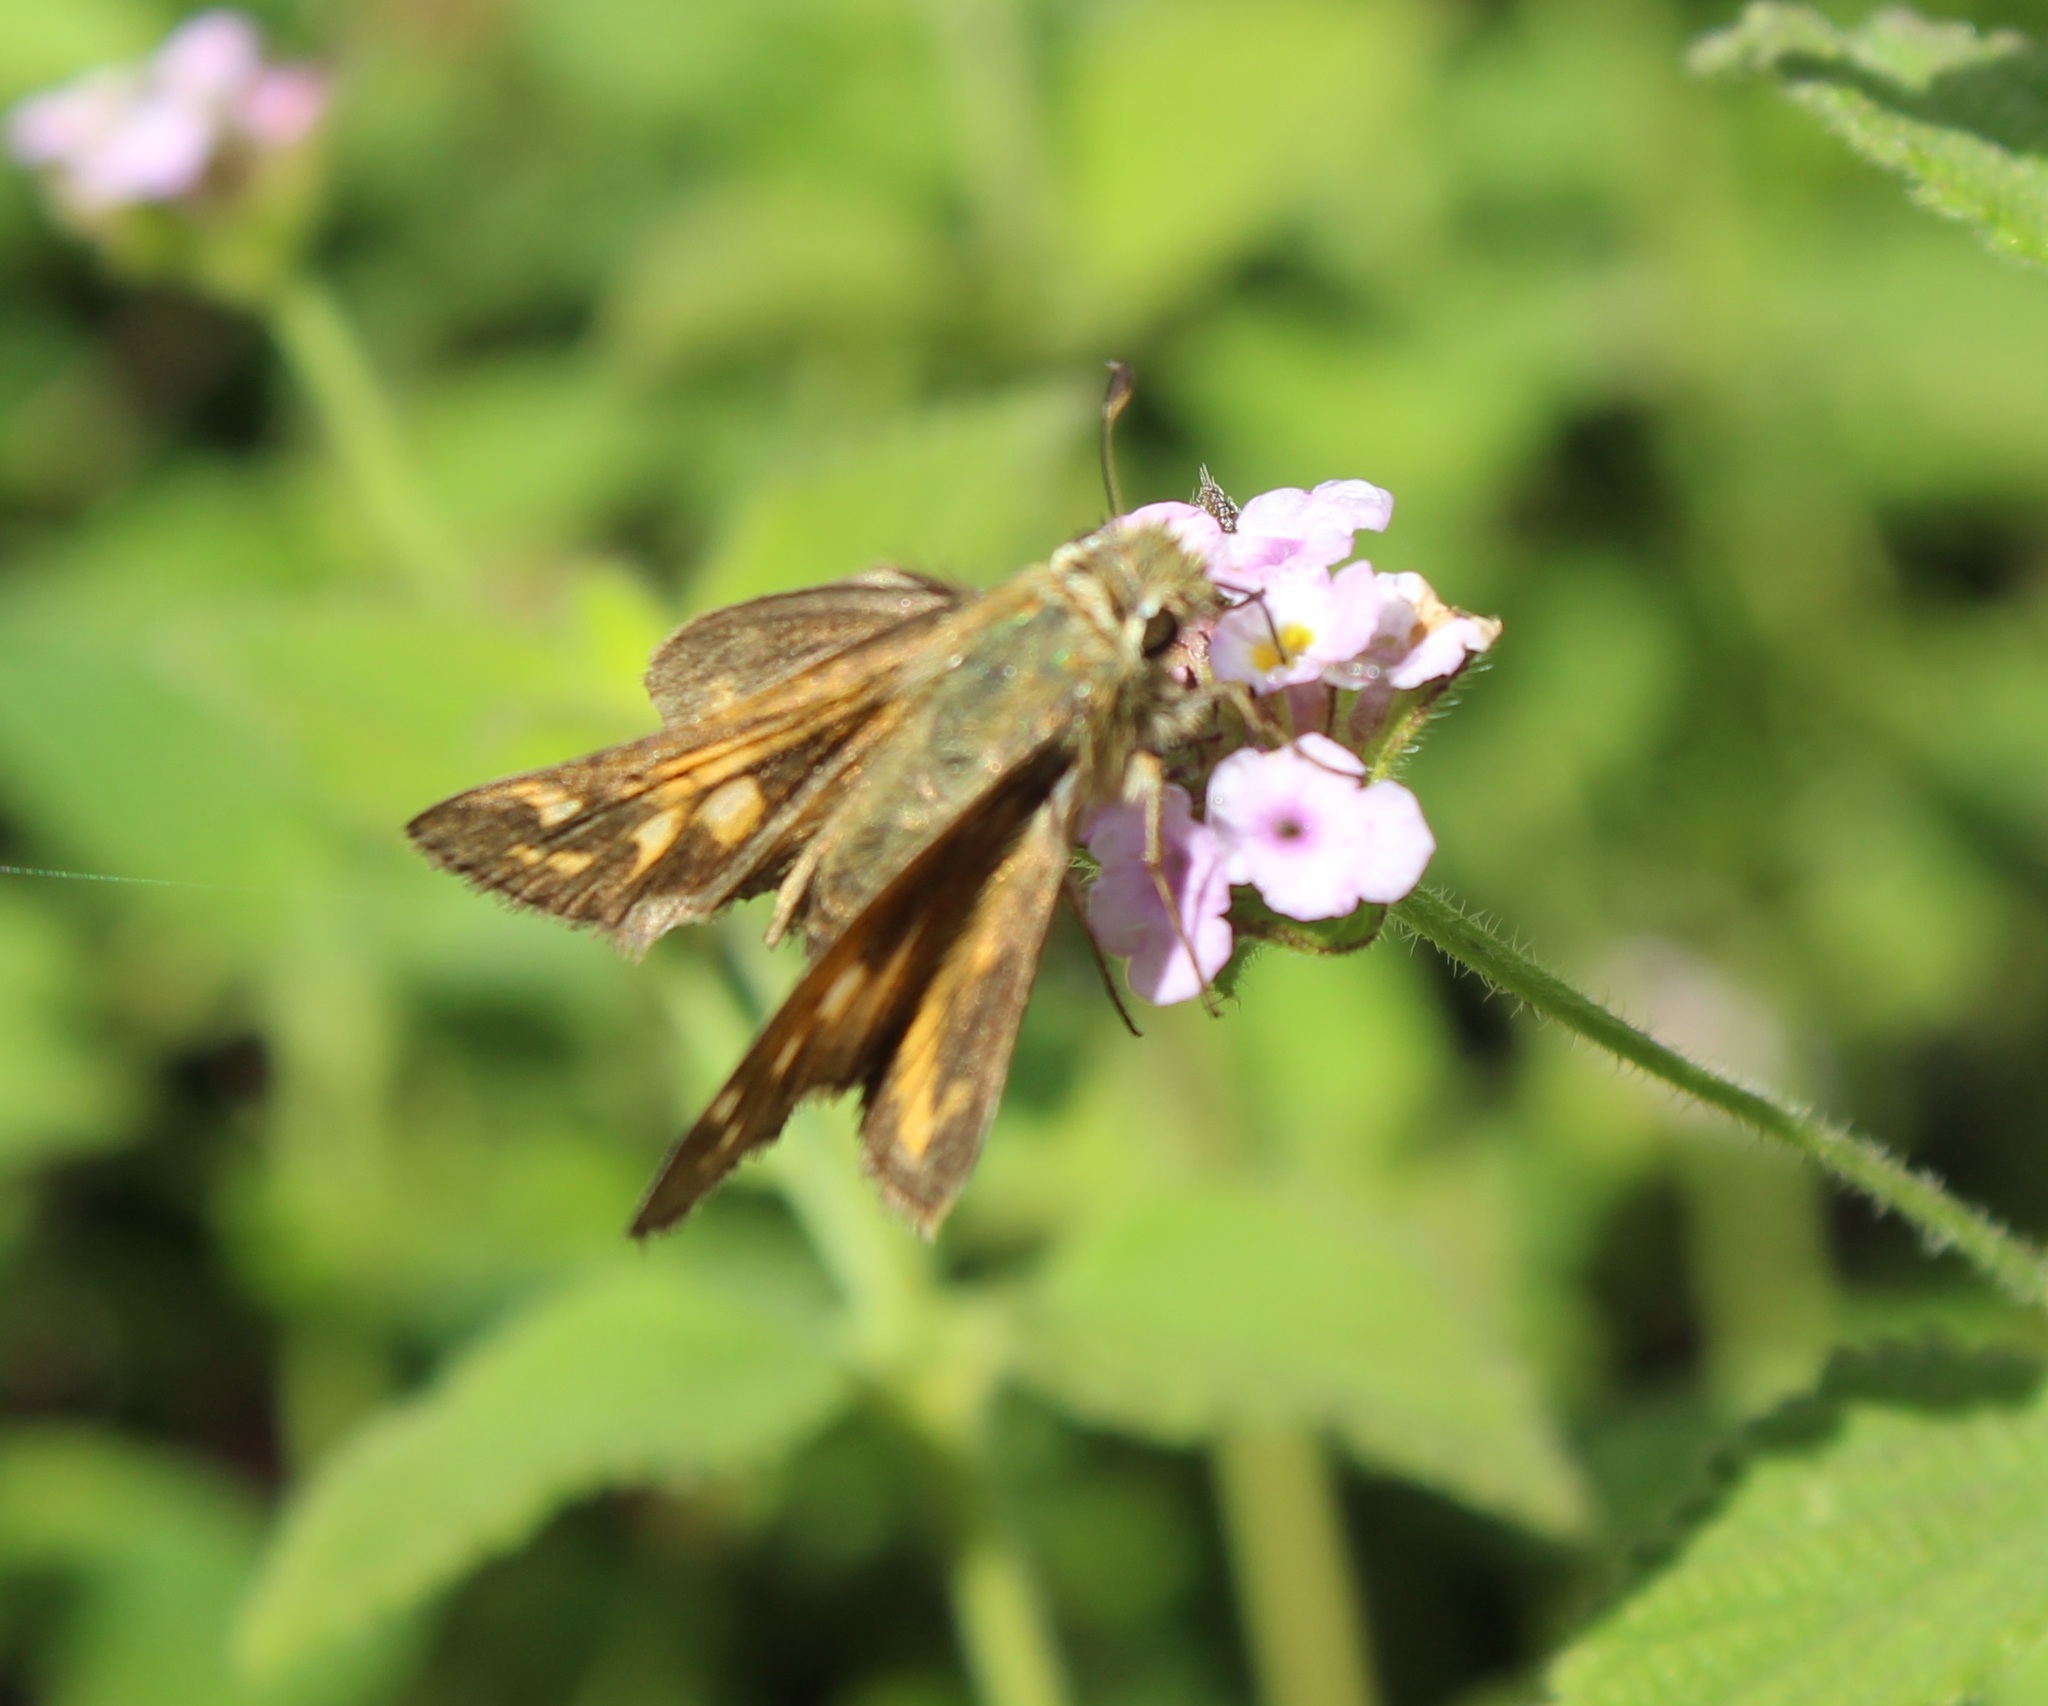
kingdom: Animalia
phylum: Arthropoda
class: Insecta
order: Lepidoptera
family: Hesperiidae
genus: Atalopedes
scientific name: Atalopedes
